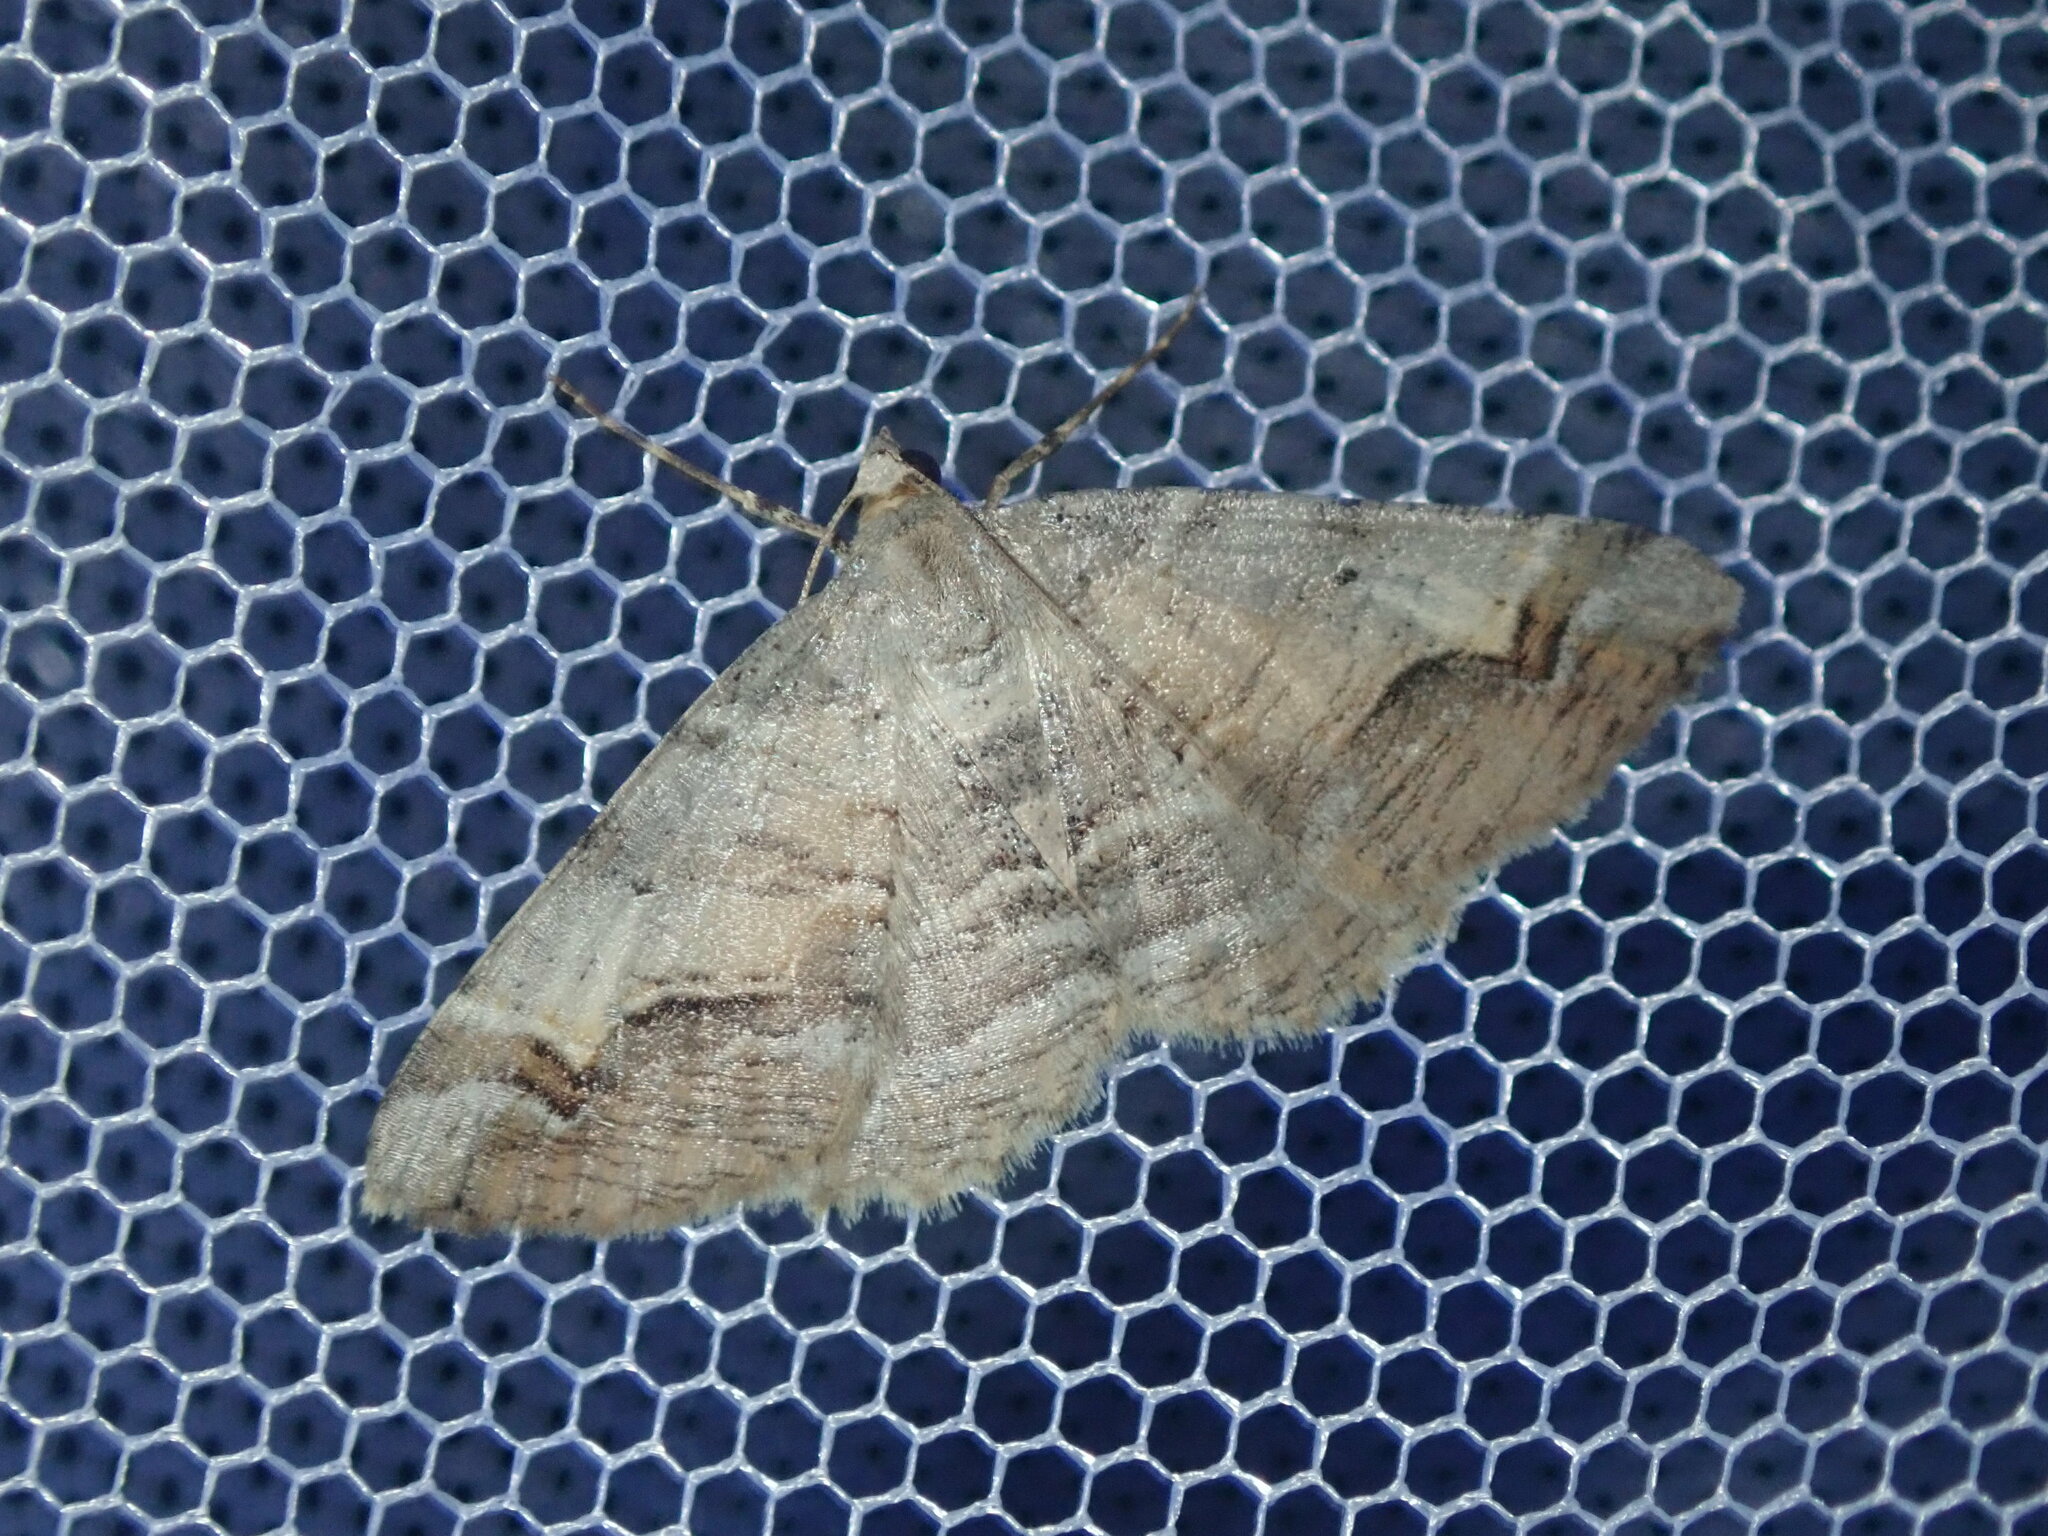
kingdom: Animalia
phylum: Arthropoda
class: Insecta
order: Lepidoptera
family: Geometridae
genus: Syneora
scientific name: Syneora emmelodes
